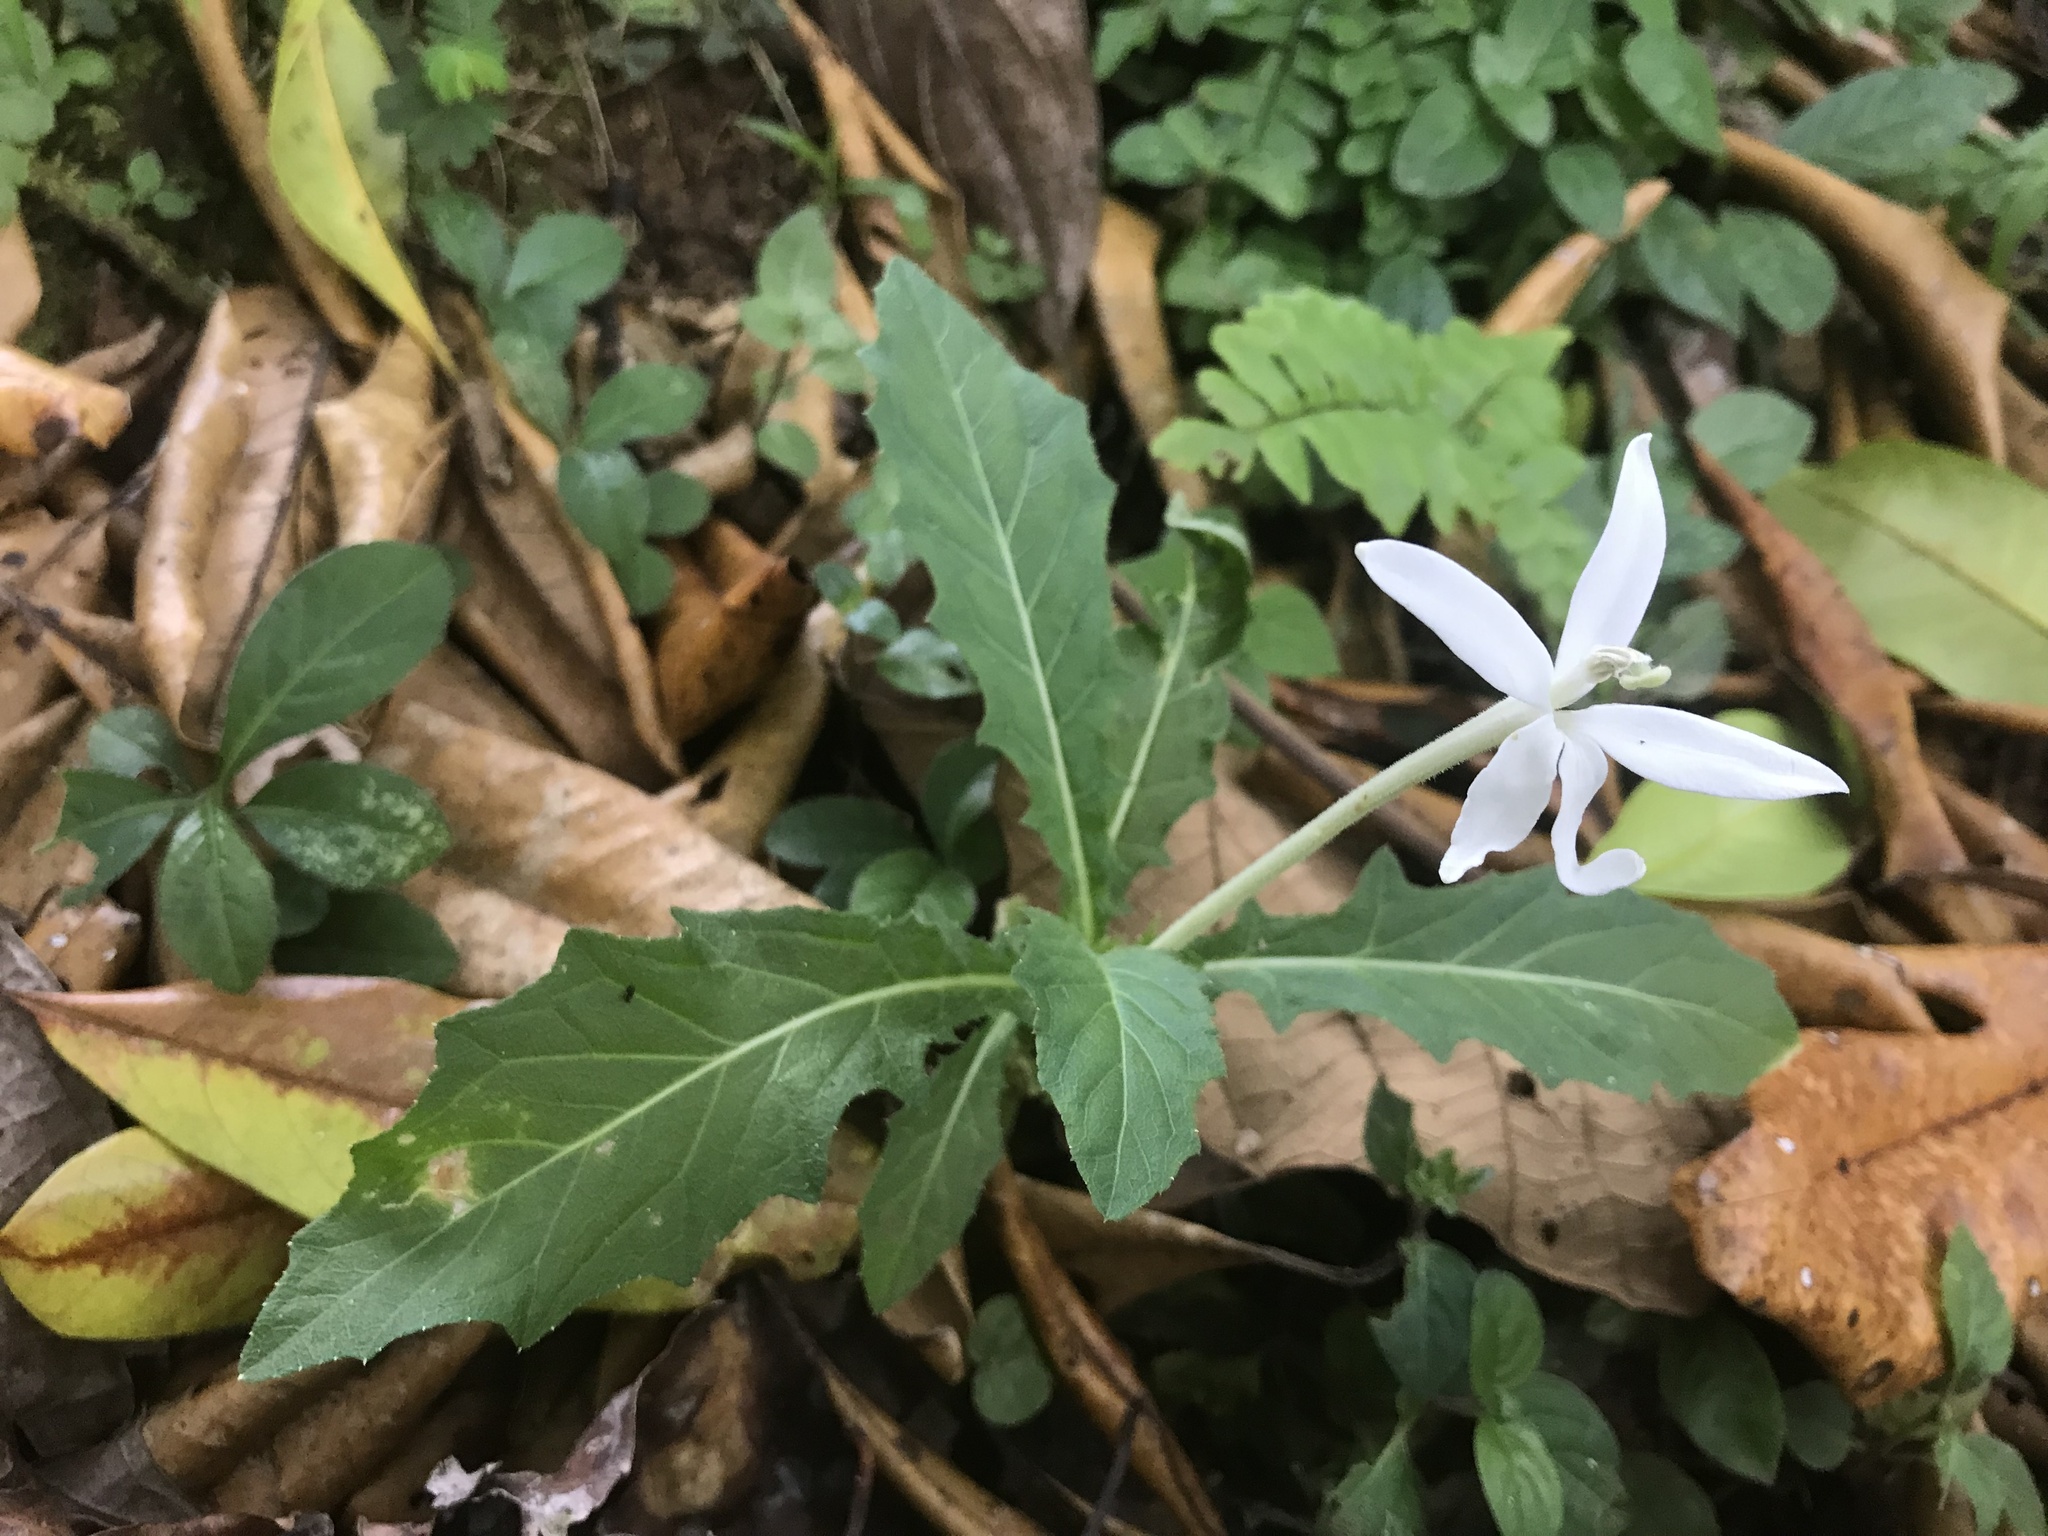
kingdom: Plantae
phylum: Tracheophyta
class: Magnoliopsida
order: Asterales
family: Campanulaceae
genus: Hippobroma
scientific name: Hippobroma longiflora
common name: Madamfate
